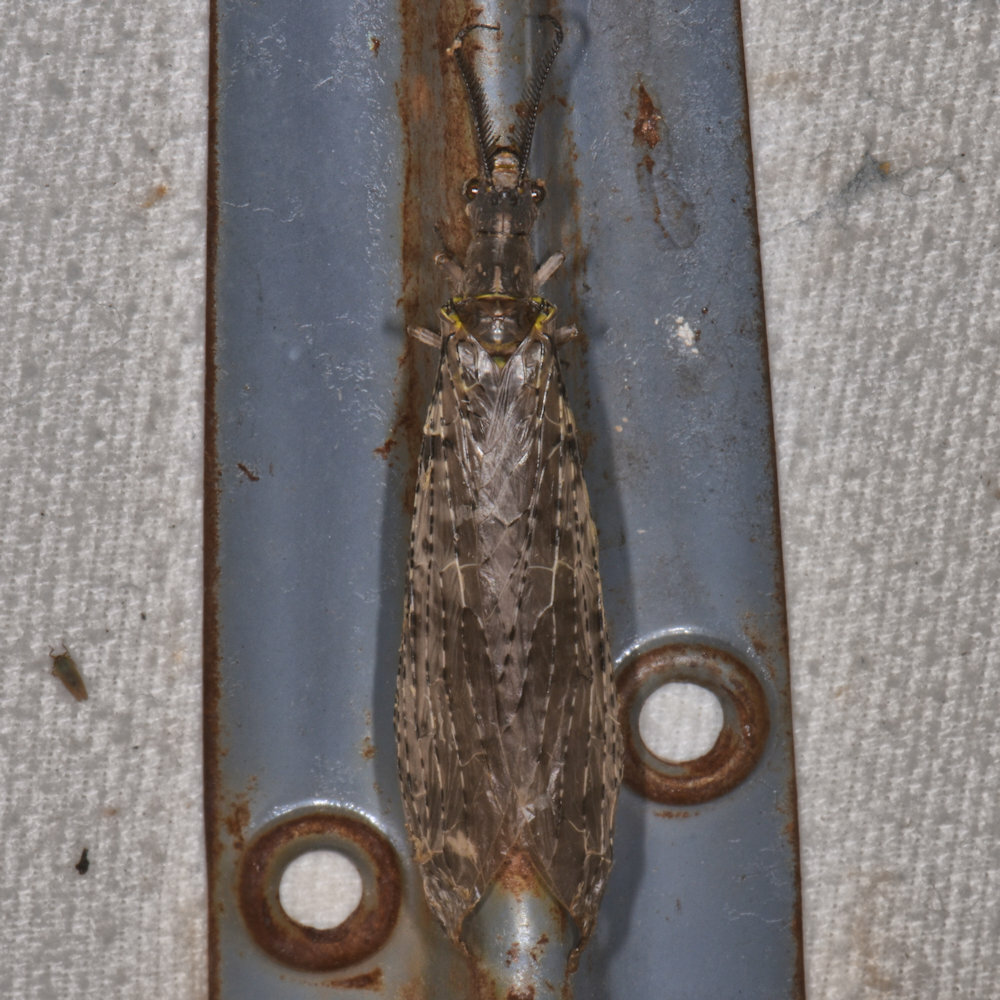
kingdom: Animalia
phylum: Arthropoda
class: Insecta
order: Megaloptera
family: Corydalidae
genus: Chauliodes
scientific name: Chauliodes pectinicornis
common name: Summer fishfly
